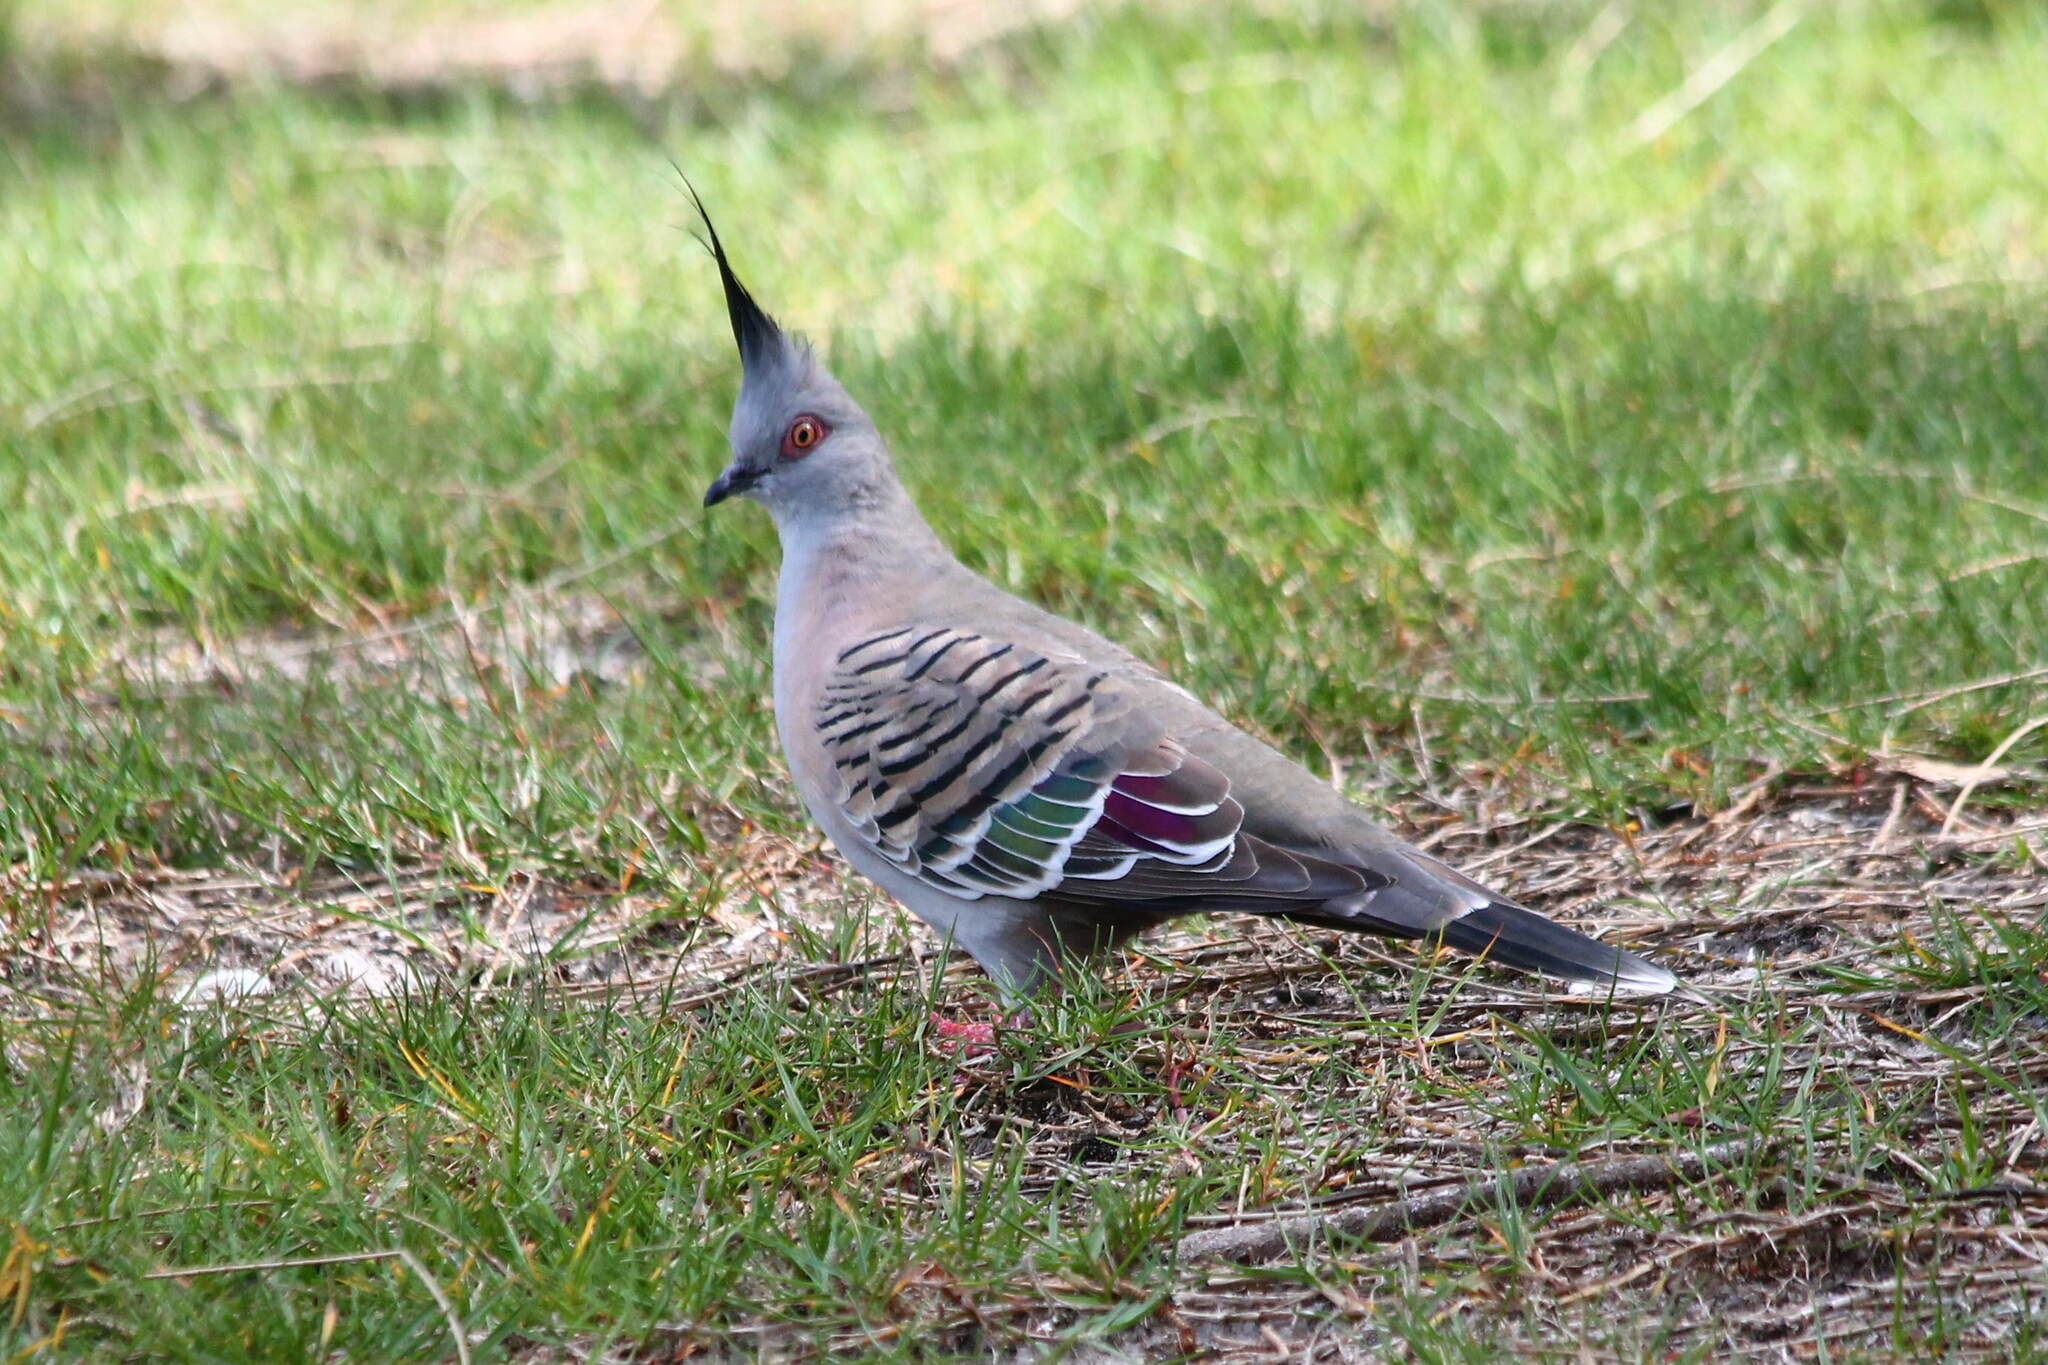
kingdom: Animalia
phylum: Chordata
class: Aves
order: Columbiformes
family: Columbidae
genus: Ocyphaps
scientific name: Ocyphaps lophotes
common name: Crested pigeon
